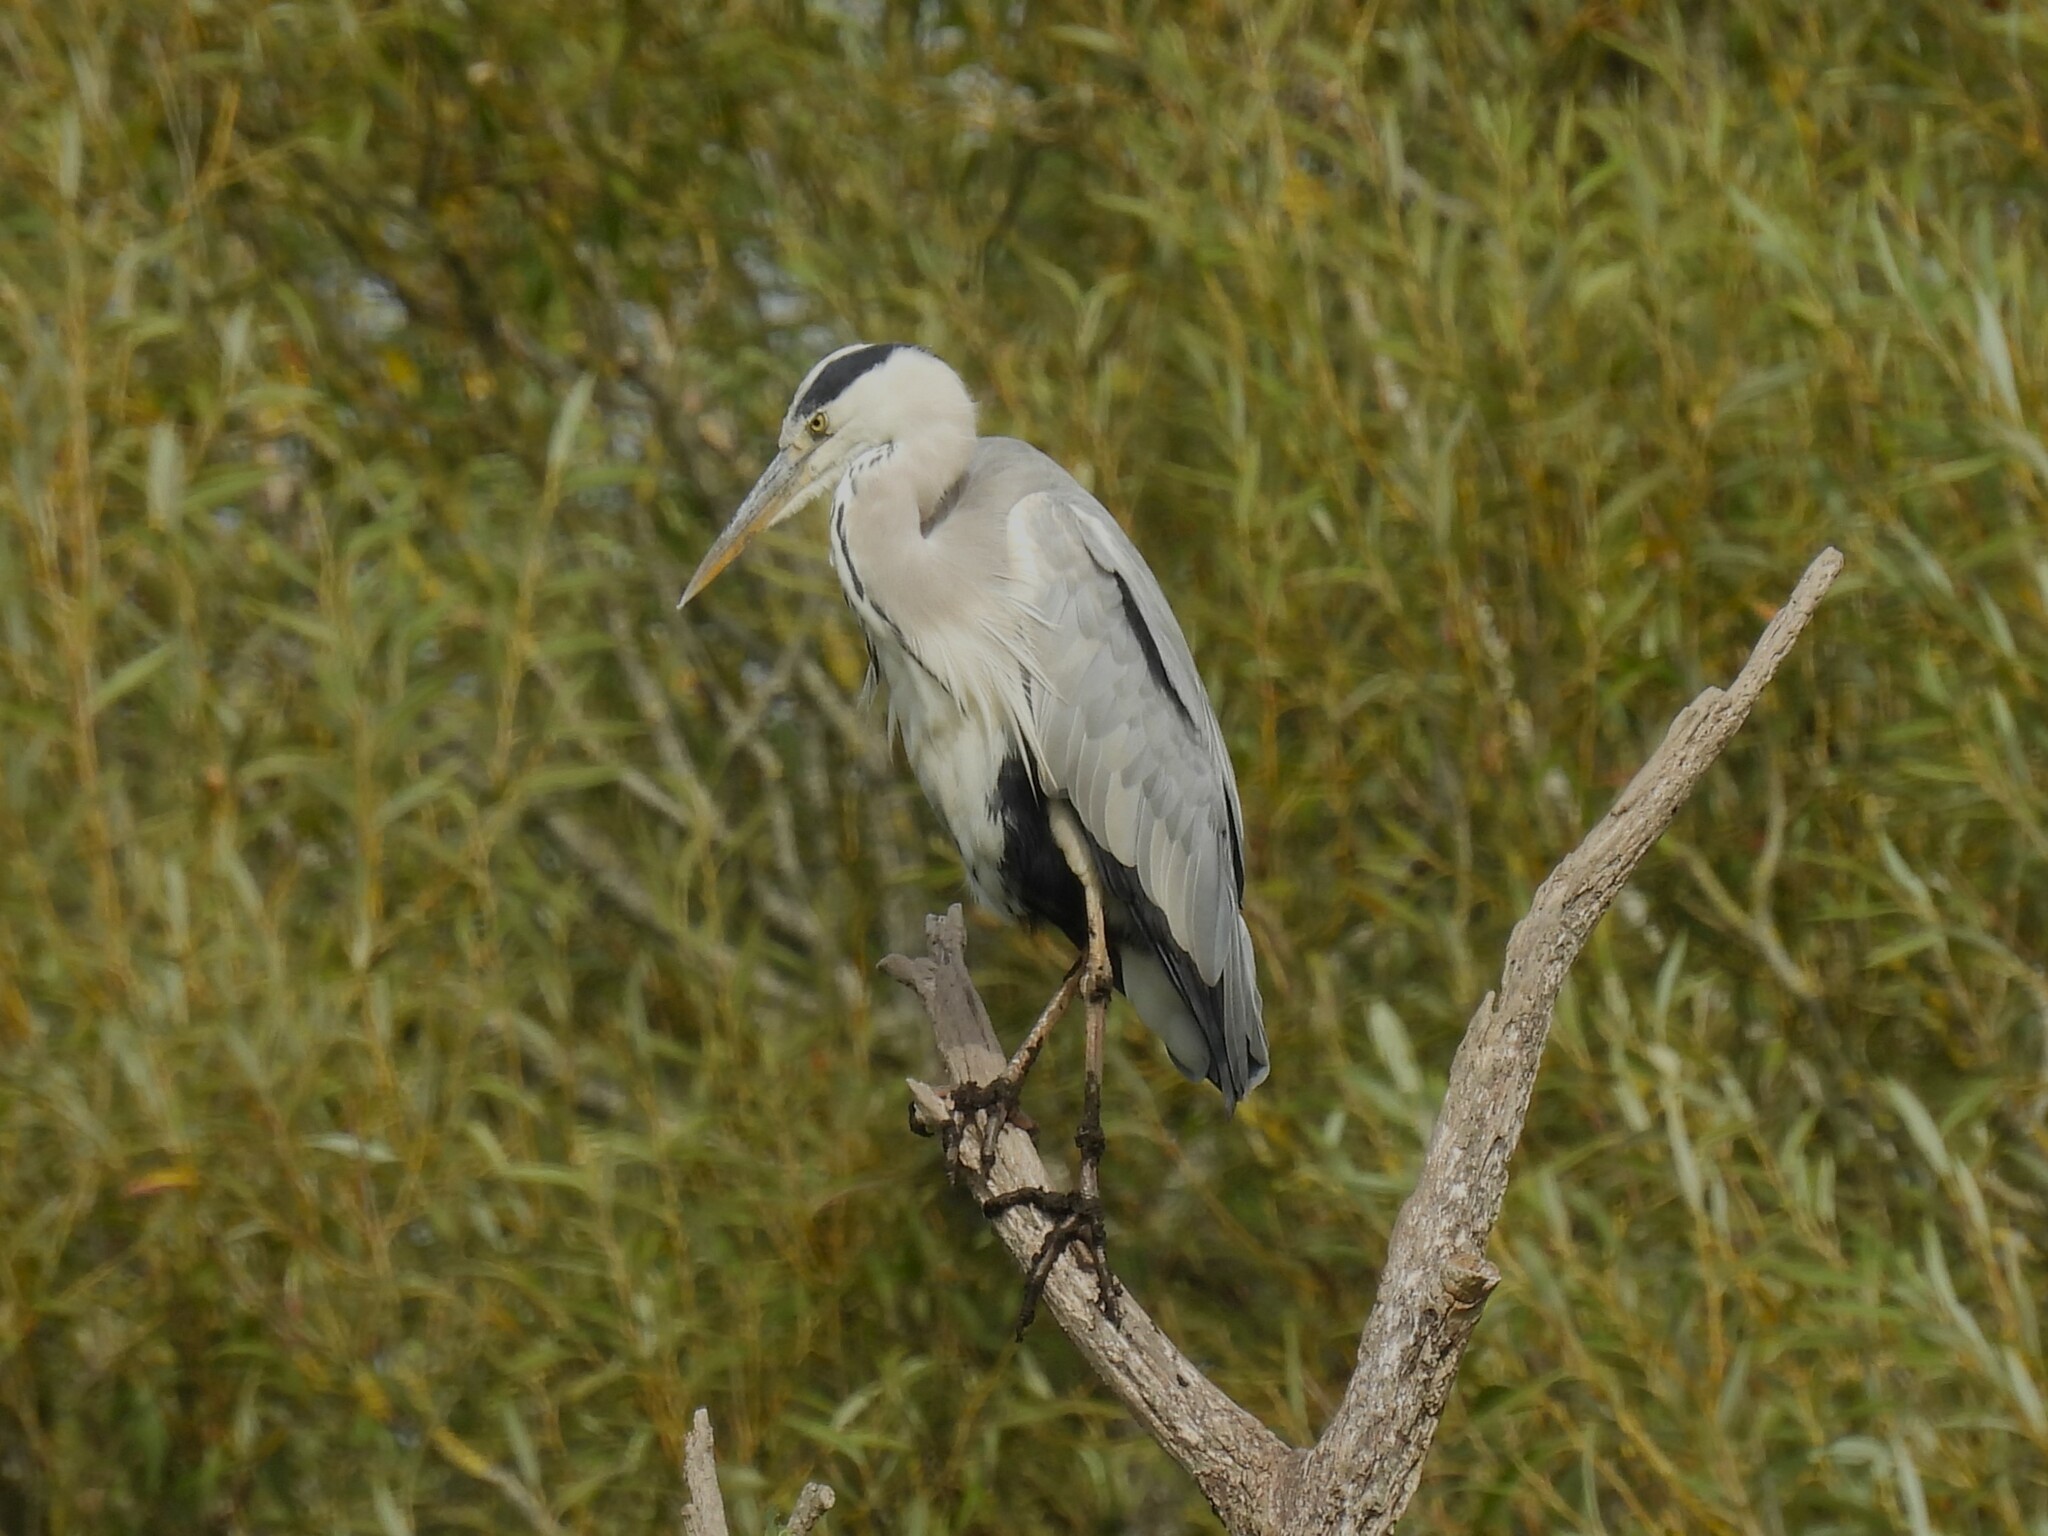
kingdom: Animalia
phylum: Chordata
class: Aves
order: Pelecaniformes
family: Ardeidae
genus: Ardea
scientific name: Ardea cinerea
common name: Grey heron
